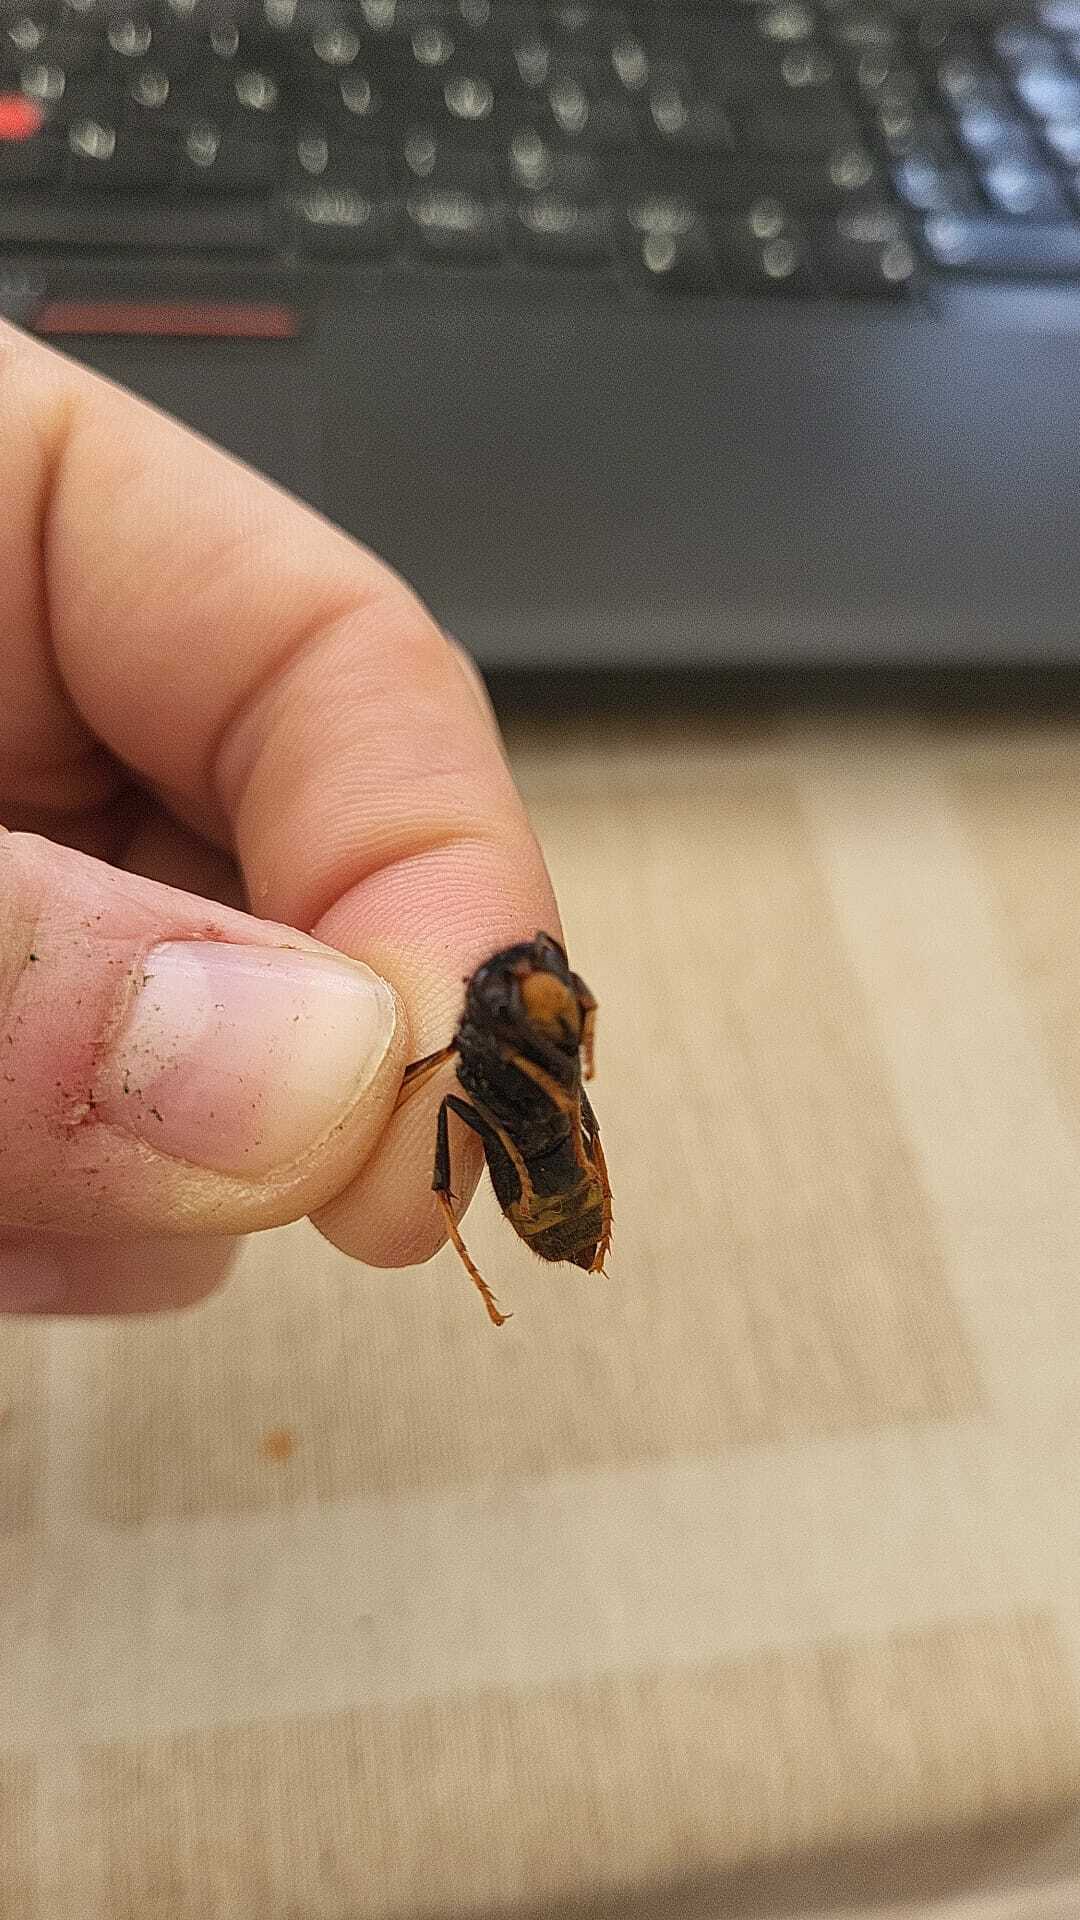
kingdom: Animalia
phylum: Arthropoda
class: Insecta
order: Hymenoptera
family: Vespidae
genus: Vespa
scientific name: Vespa velutina
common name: Asian hornet
